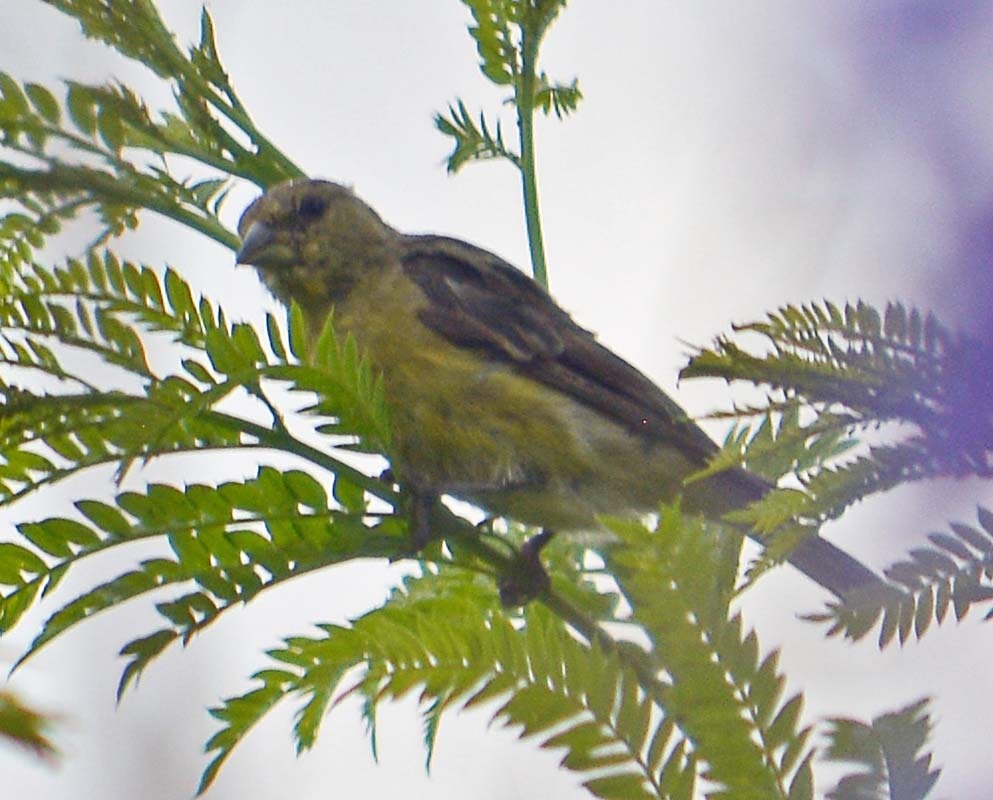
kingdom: Animalia
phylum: Chordata
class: Aves
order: Passeriformes
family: Fringillidae
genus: Spinus
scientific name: Spinus psaltria
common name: Lesser goldfinch
